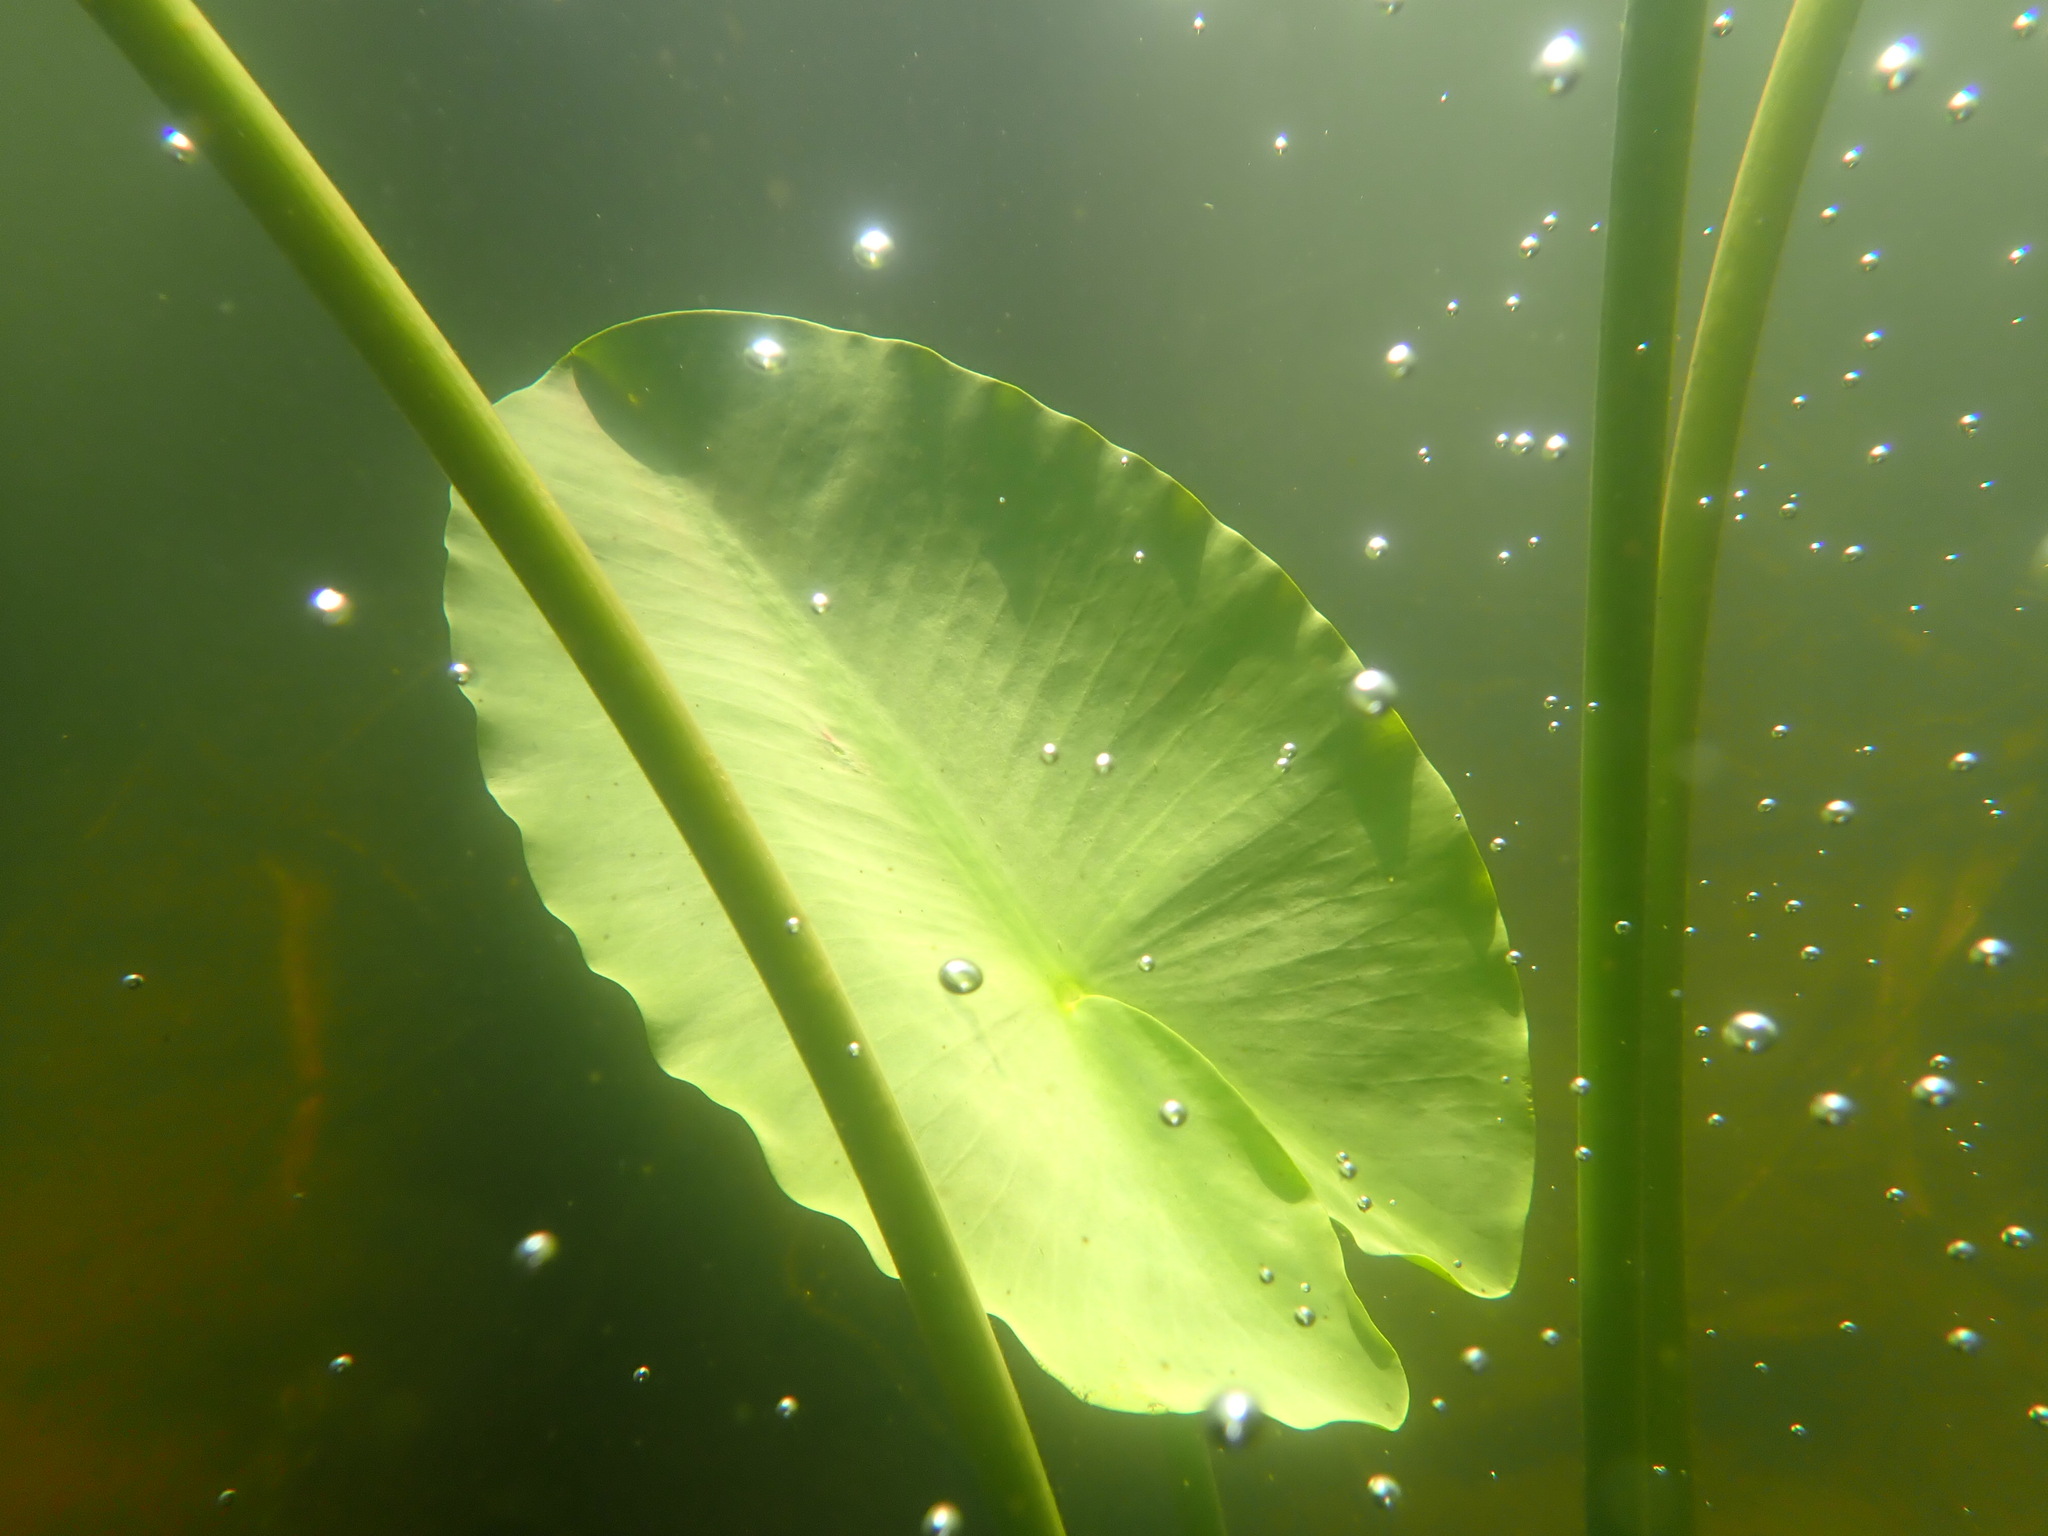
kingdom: Plantae
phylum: Tracheophyta
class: Magnoliopsida
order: Nymphaeales
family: Nymphaeaceae
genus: Nuphar
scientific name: Nuphar polysepala
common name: Rocky mountain cow-lily
